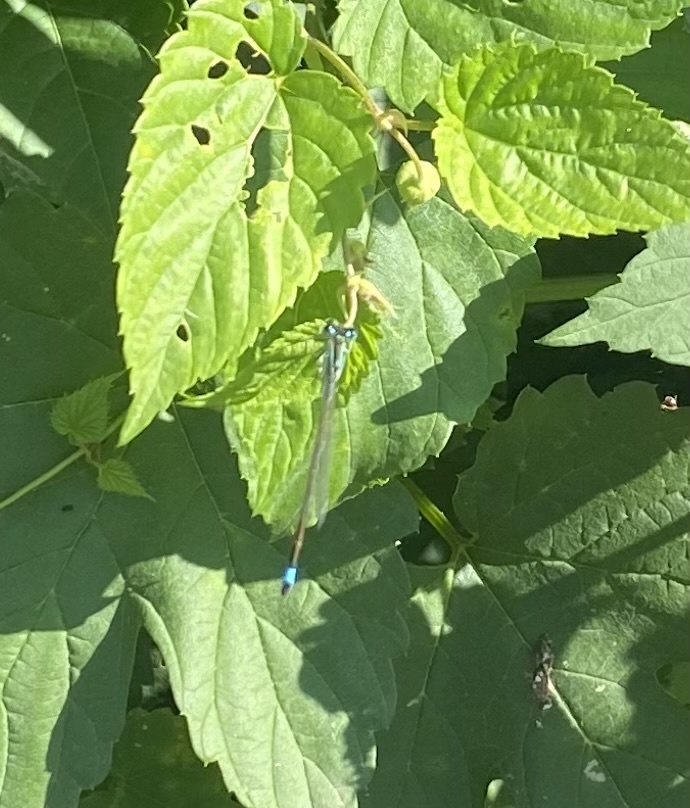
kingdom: Animalia
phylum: Arthropoda
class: Insecta
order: Odonata
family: Coenagrionidae
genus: Ischnura
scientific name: Ischnura elegans
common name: Blue-tailed damselfly
